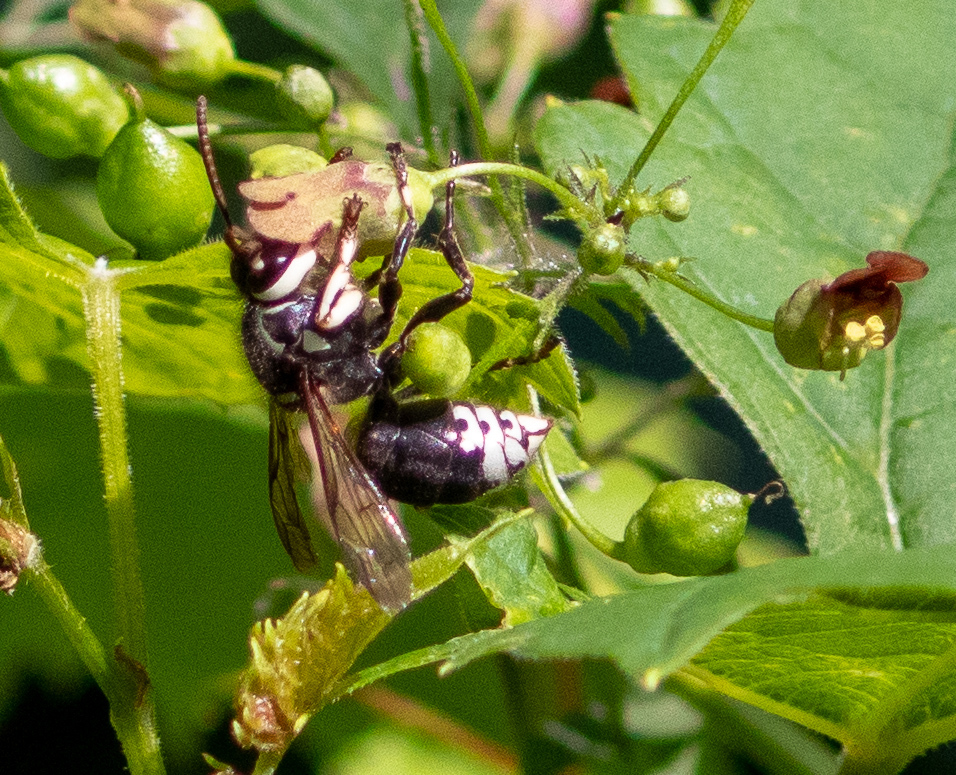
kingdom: Animalia
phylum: Arthropoda
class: Insecta
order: Hymenoptera
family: Vespidae
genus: Dolichovespula
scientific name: Dolichovespula maculata
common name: Bald-faced hornet
